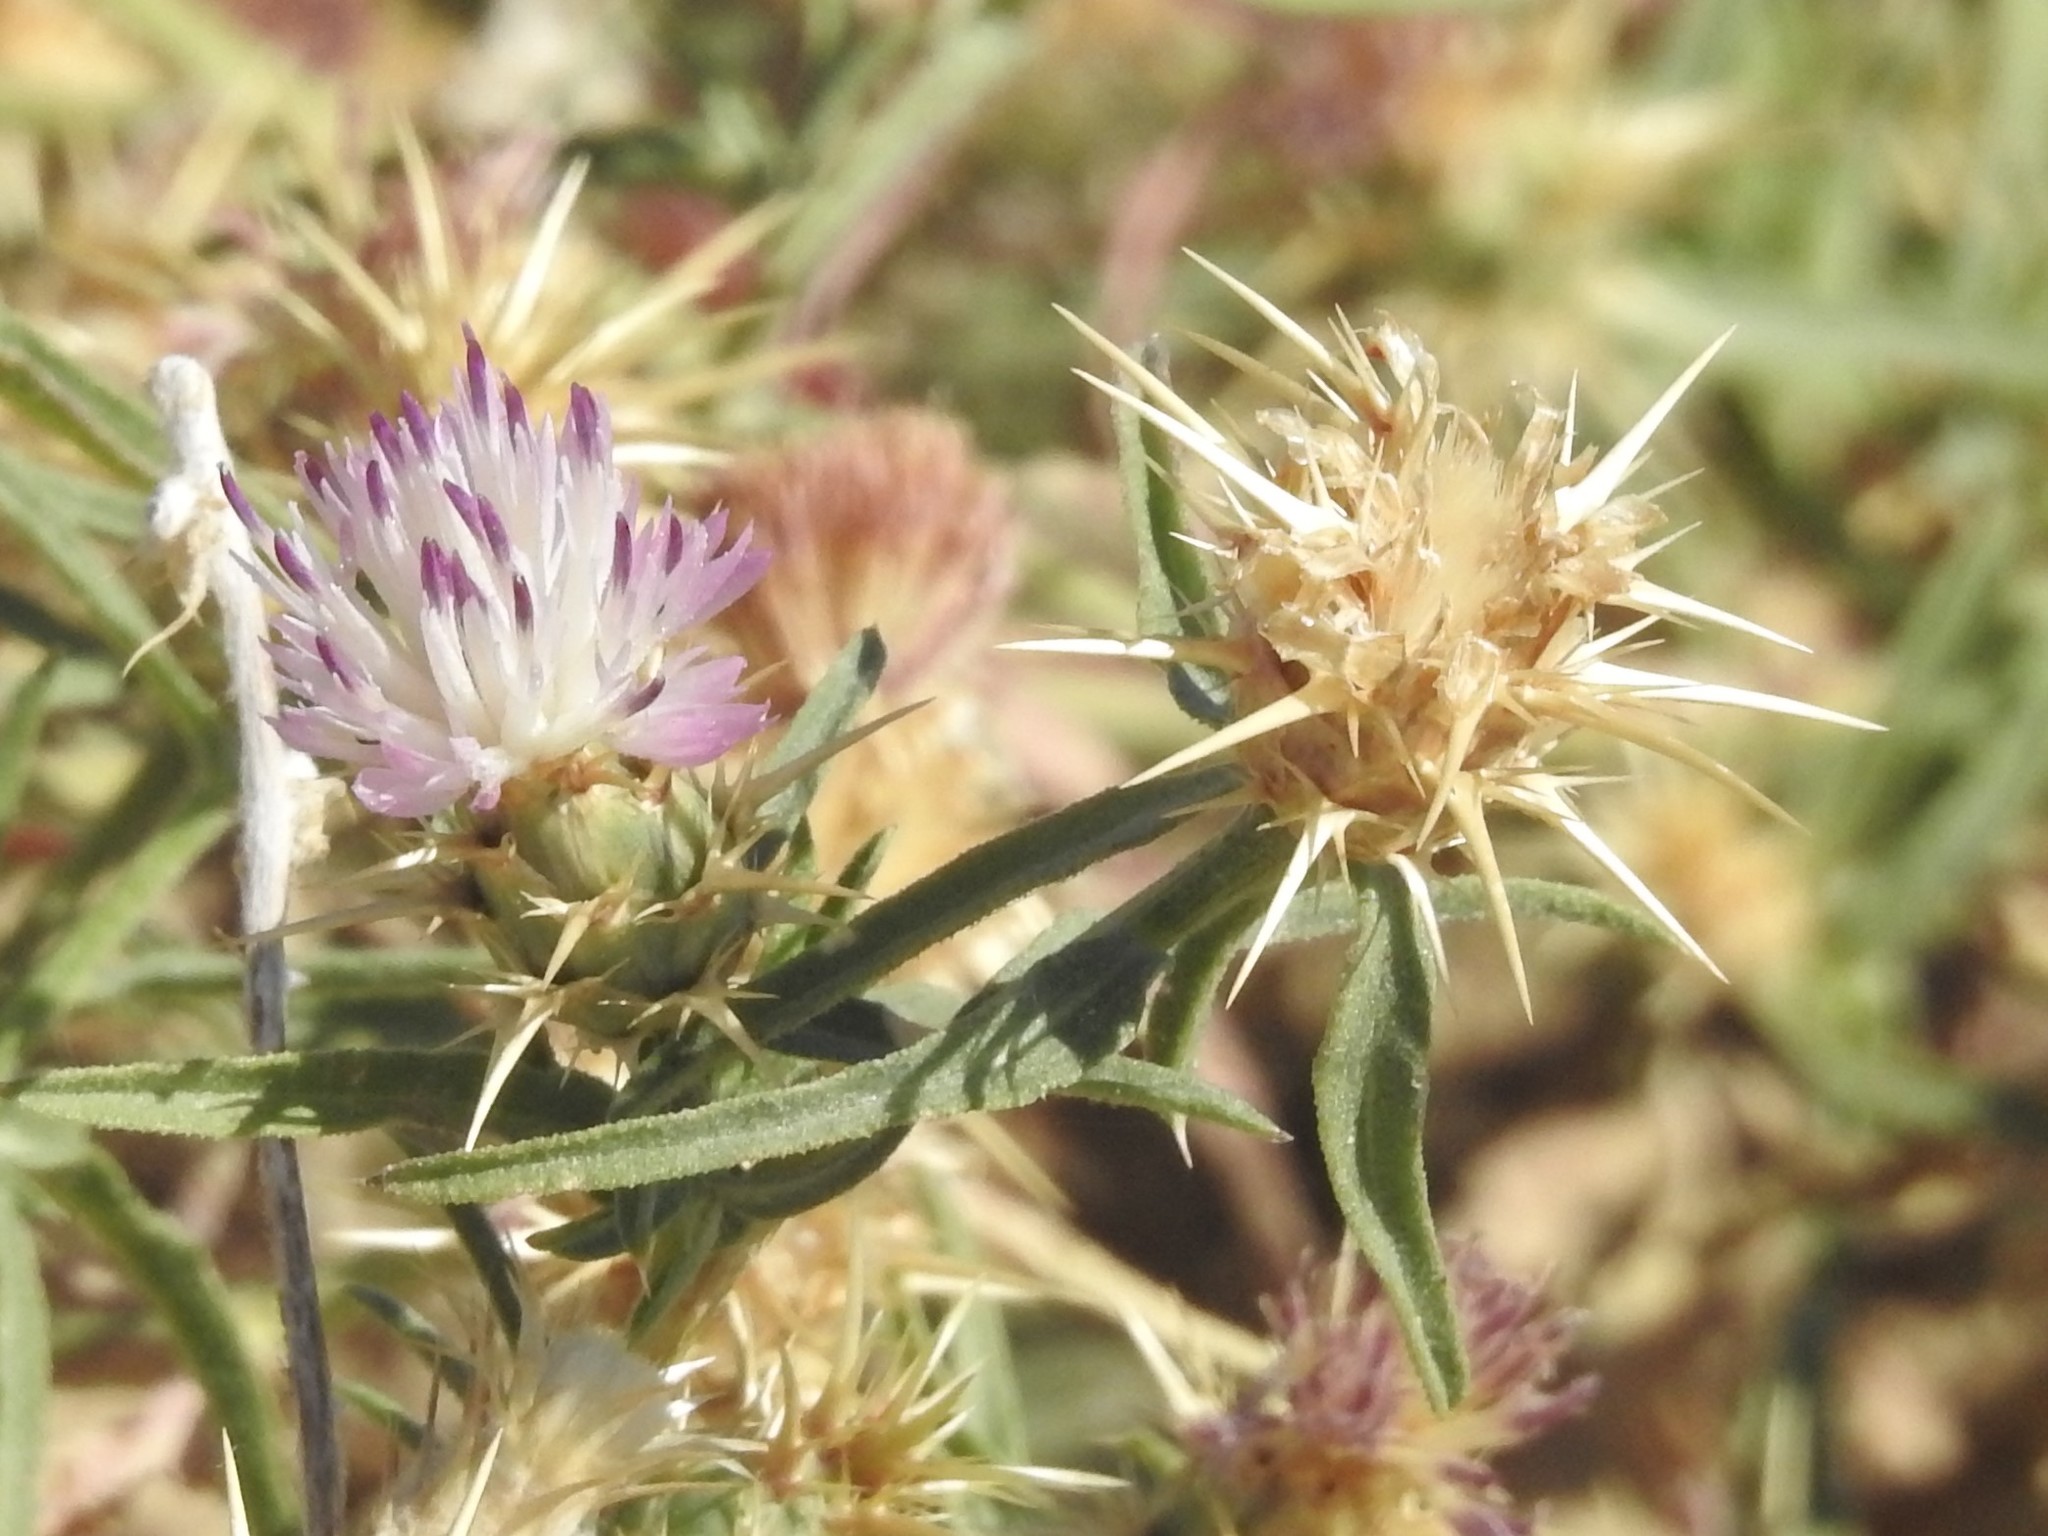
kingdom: Plantae
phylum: Tracheophyta
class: Magnoliopsida
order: Asterales
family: Asteraceae
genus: Centaurea
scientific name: Centaurea calcitrapa
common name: Red star-thistle
